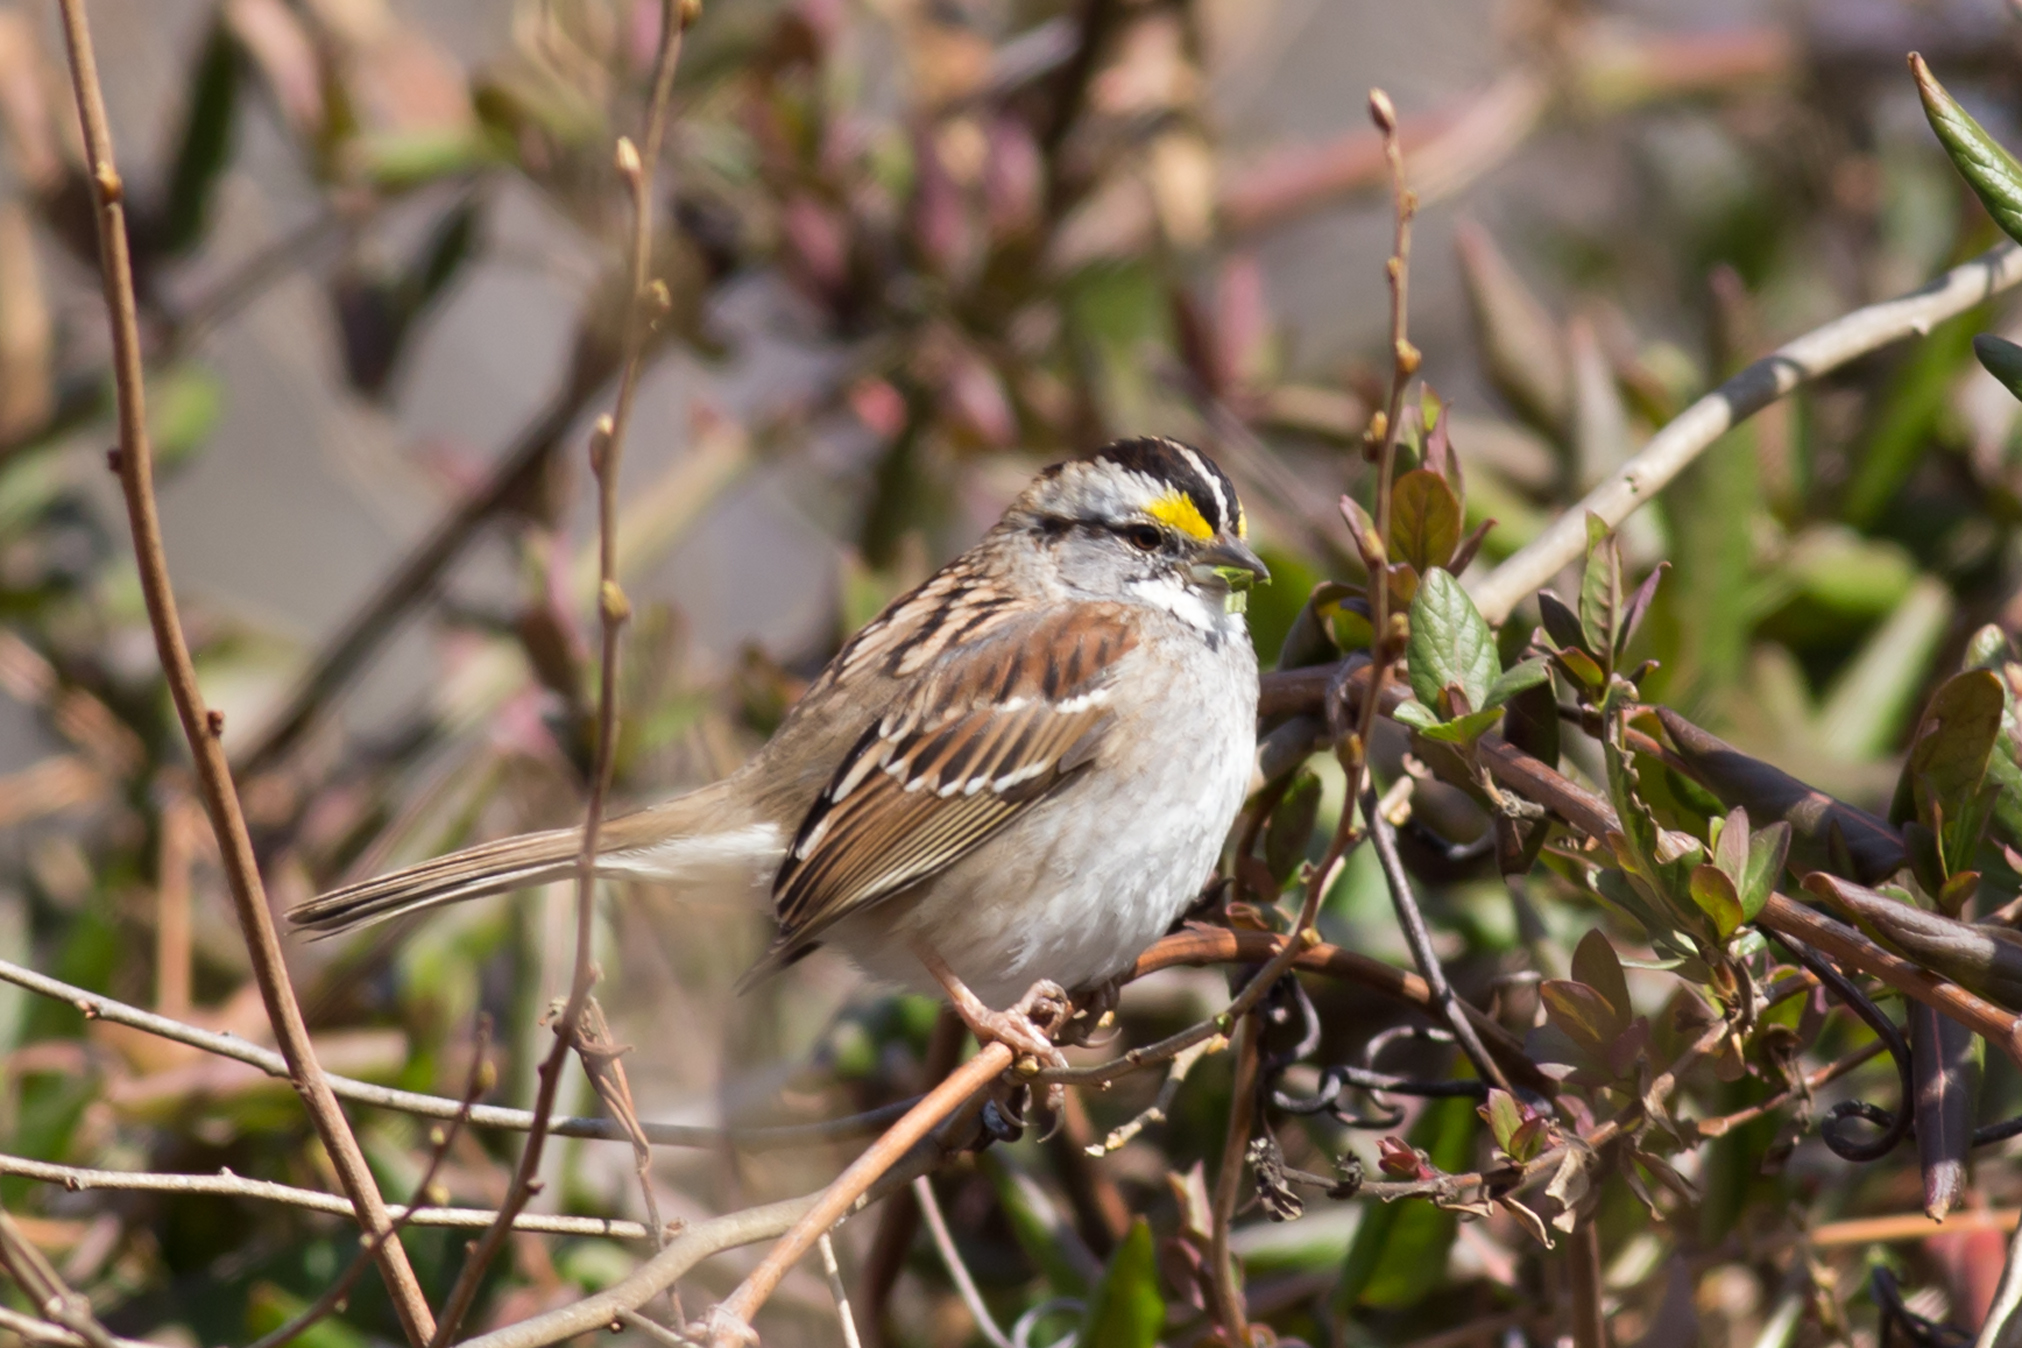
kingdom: Animalia
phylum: Chordata
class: Aves
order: Passeriformes
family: Passerellidae
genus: Zonotrichia
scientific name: Zonotrichia albicollis
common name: White-throated sparrow
